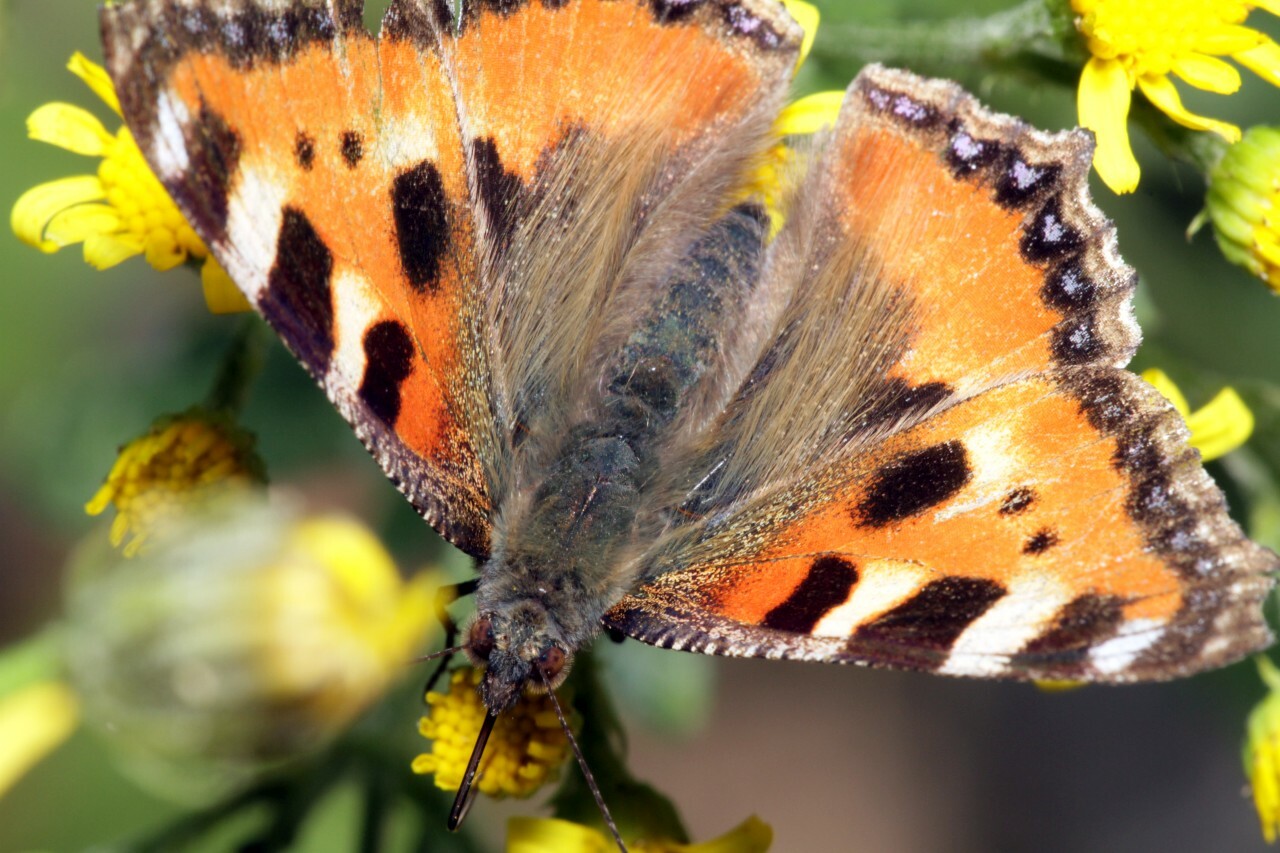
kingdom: Animalia
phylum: Arthropoda
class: Insecta
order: Lepidoptera
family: Nymphalidae
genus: Aglais
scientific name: Aglais urticae
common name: Small tortoiseshell
